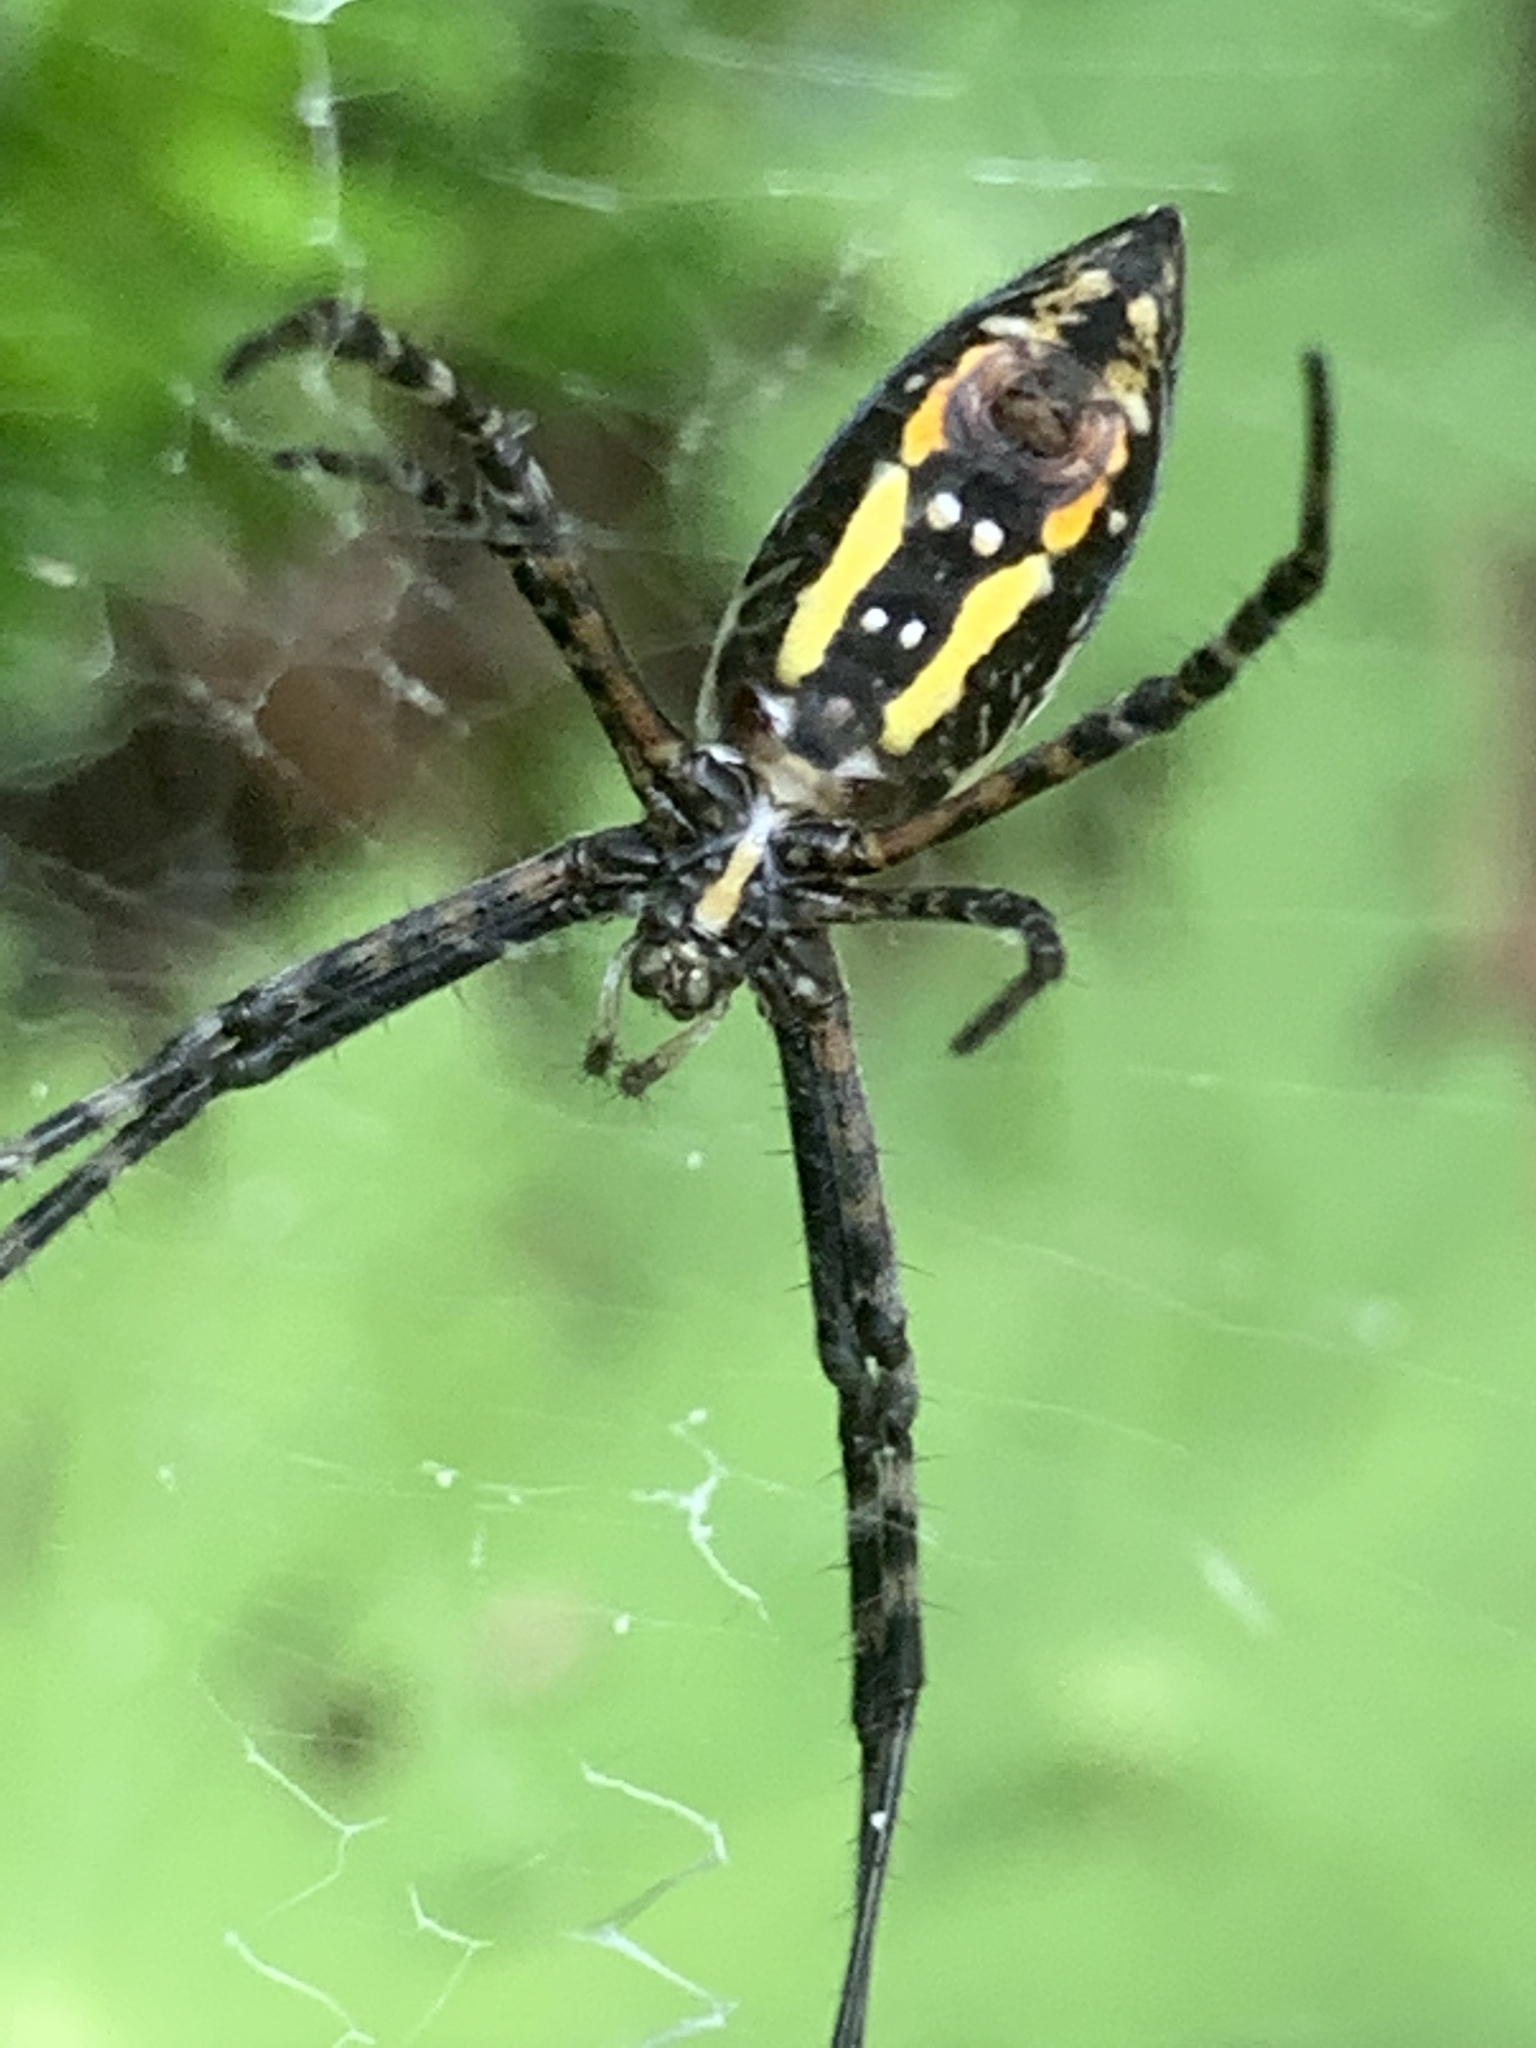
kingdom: Animalia
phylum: Arthropoda
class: Arachnida
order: Araneae
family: Araneidae
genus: Argiope
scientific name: Argiope trifasciata
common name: Banded garden spider
